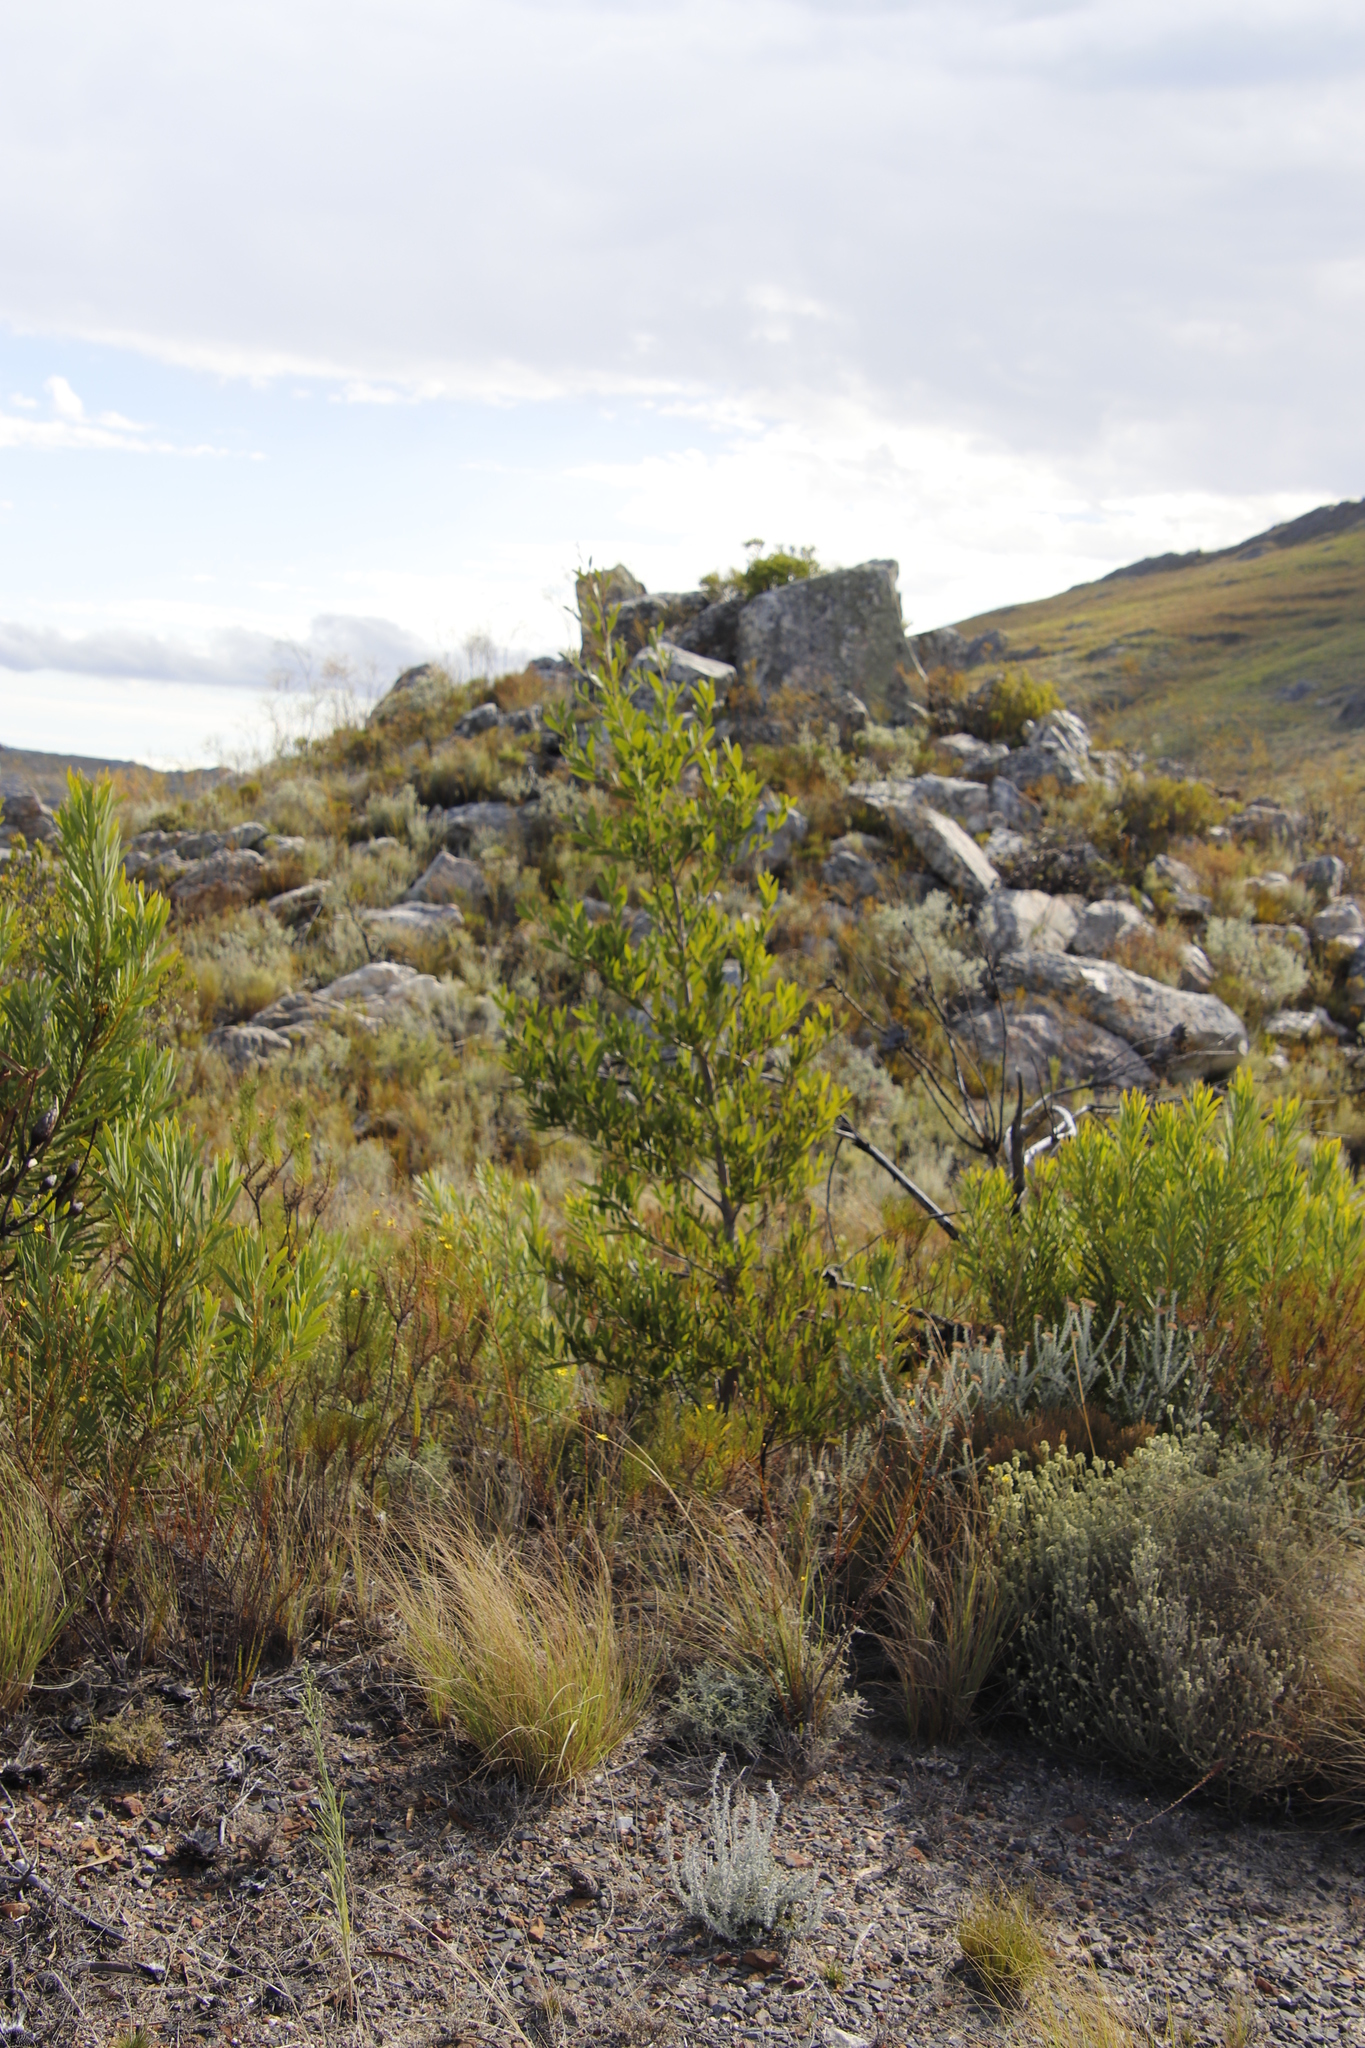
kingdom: Plantae
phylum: Tracheophyta
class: Magnoliopsida
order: Fabales
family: Fabaceae
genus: Acacia
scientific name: Acacia longifolia
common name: Sydney golden wattle
